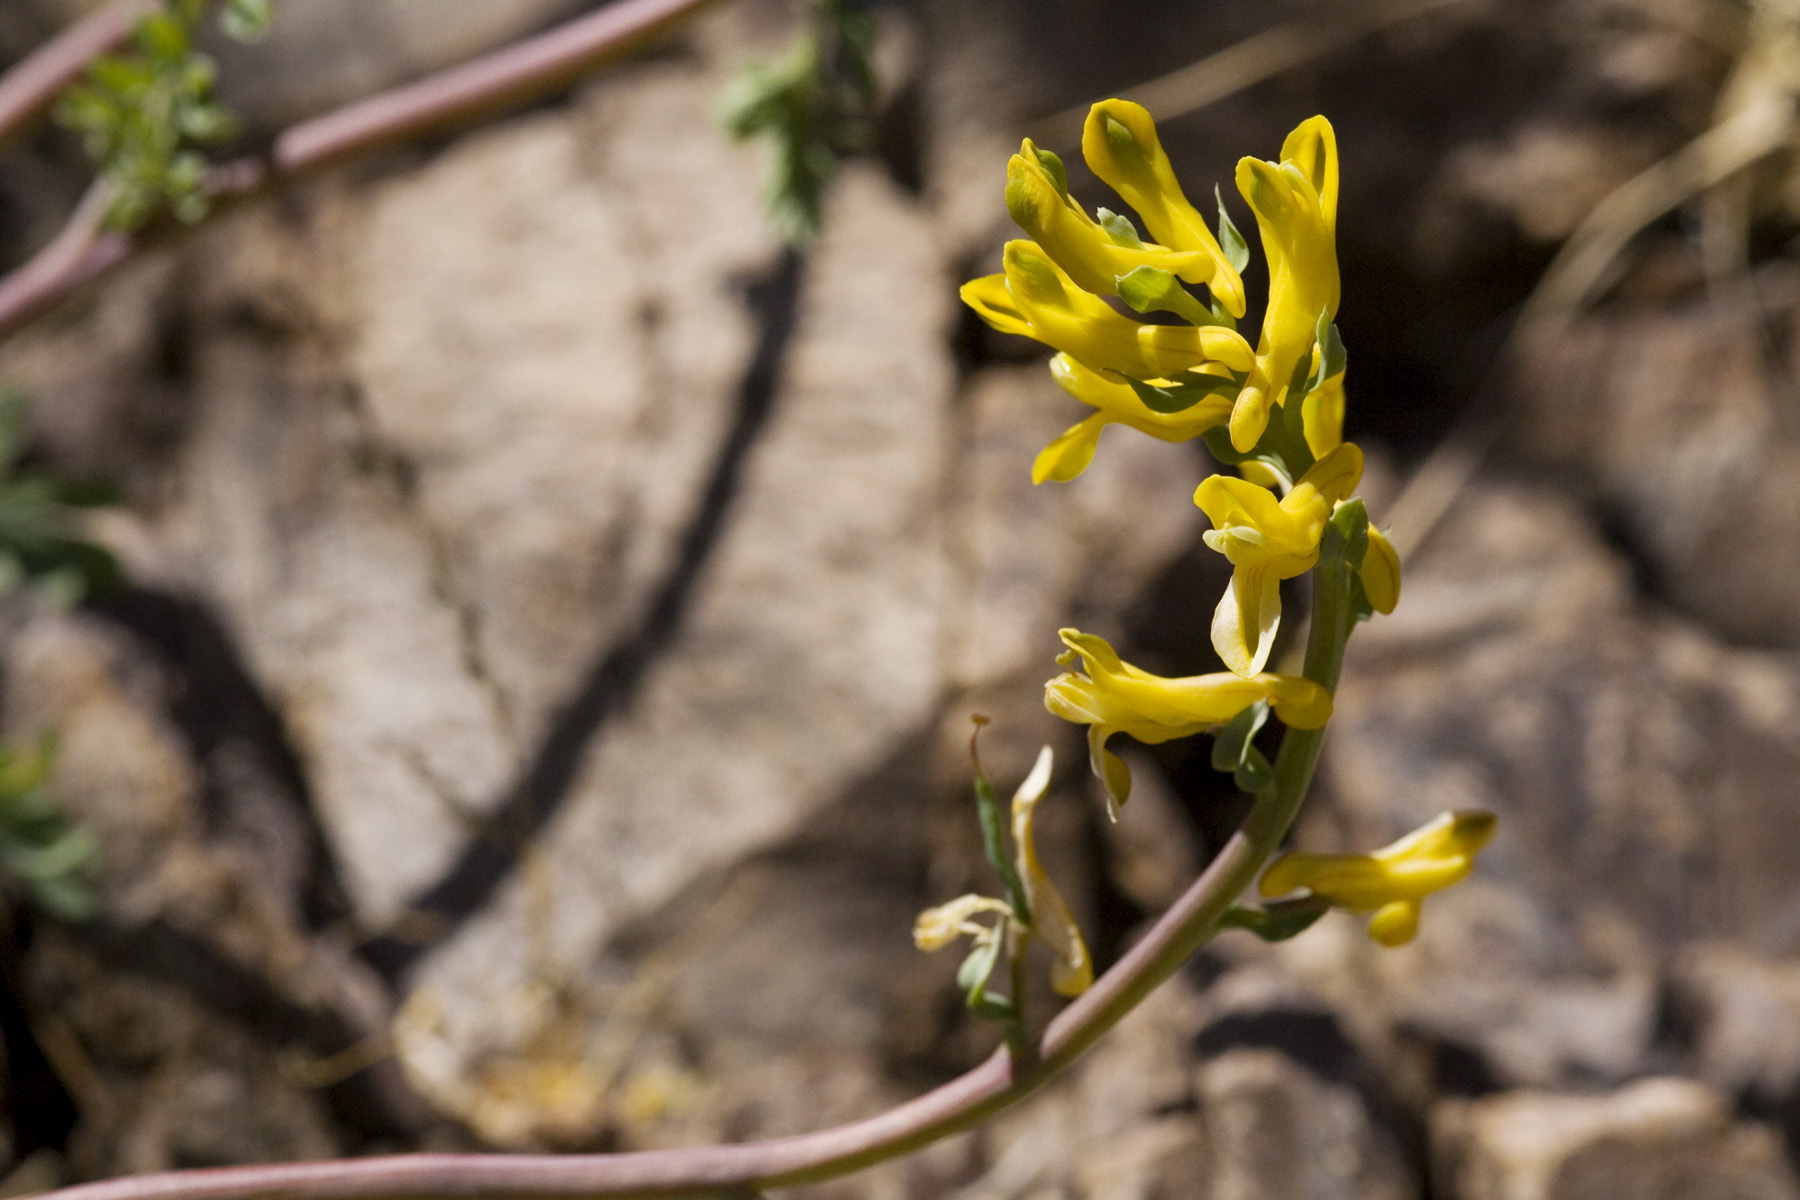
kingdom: Plantae
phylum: Tracheophyta
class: Magnoliopsida
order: Ranunculales
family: Papaveraceae
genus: Corydalis
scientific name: Corydalis aurea
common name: Golden corydalis
